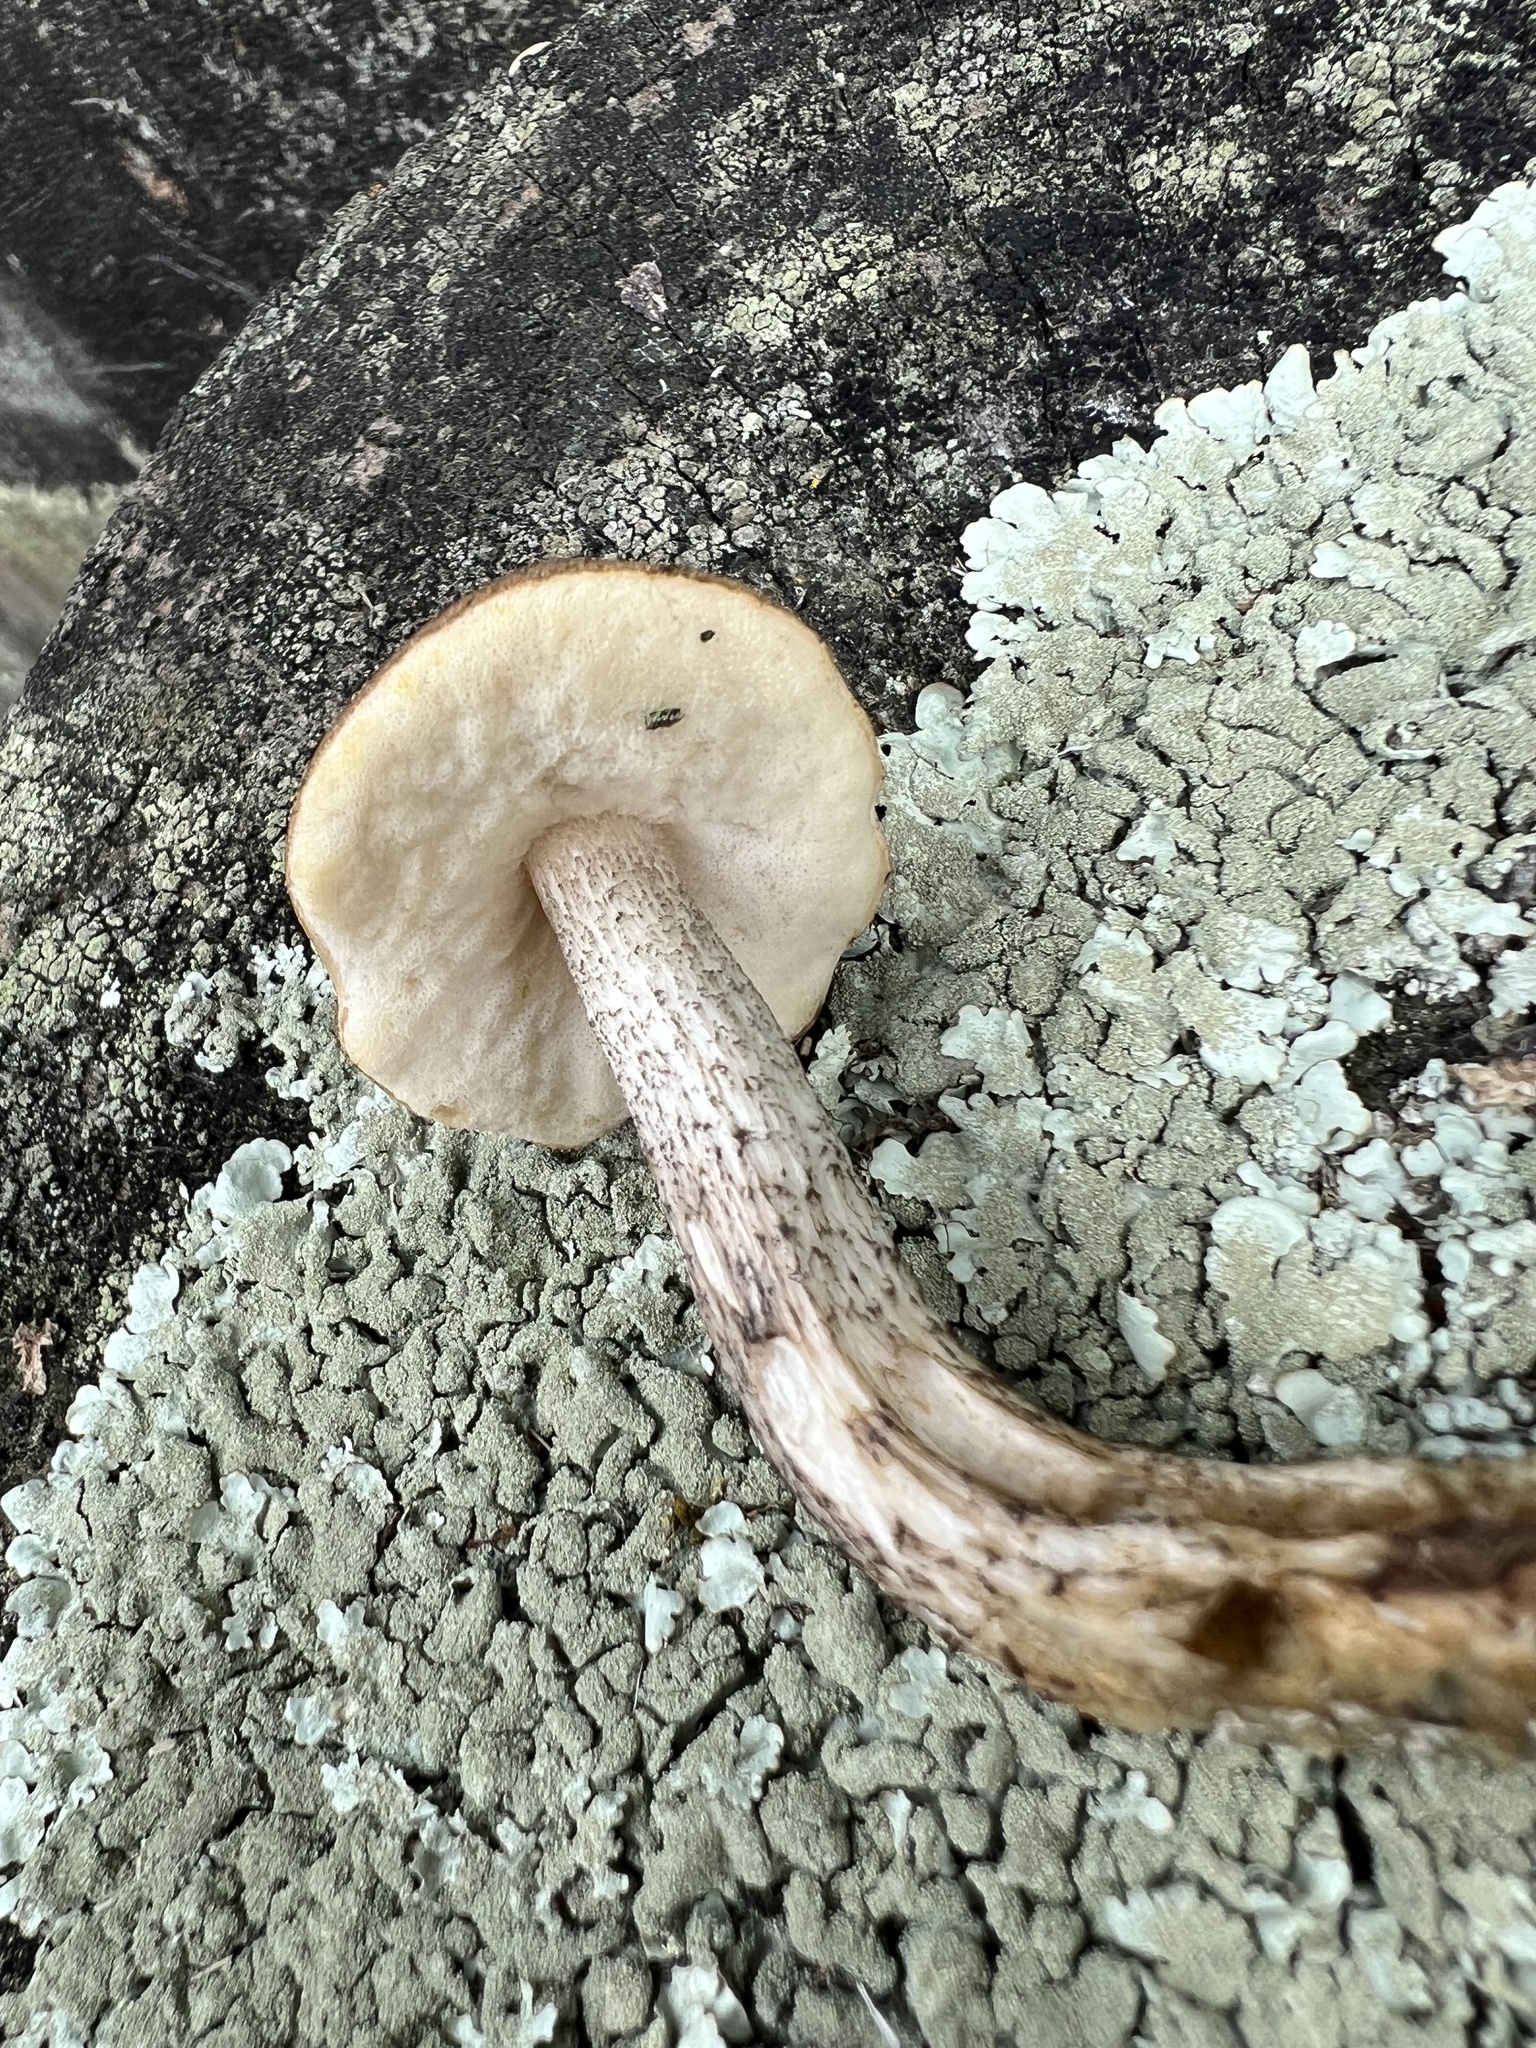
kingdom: Fungi
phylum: Basidiomycota
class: Agaricomycetes
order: Boletales
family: Boletaceae
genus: Leccinum
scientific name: Leccinum scabrum
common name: Blushing bolete
